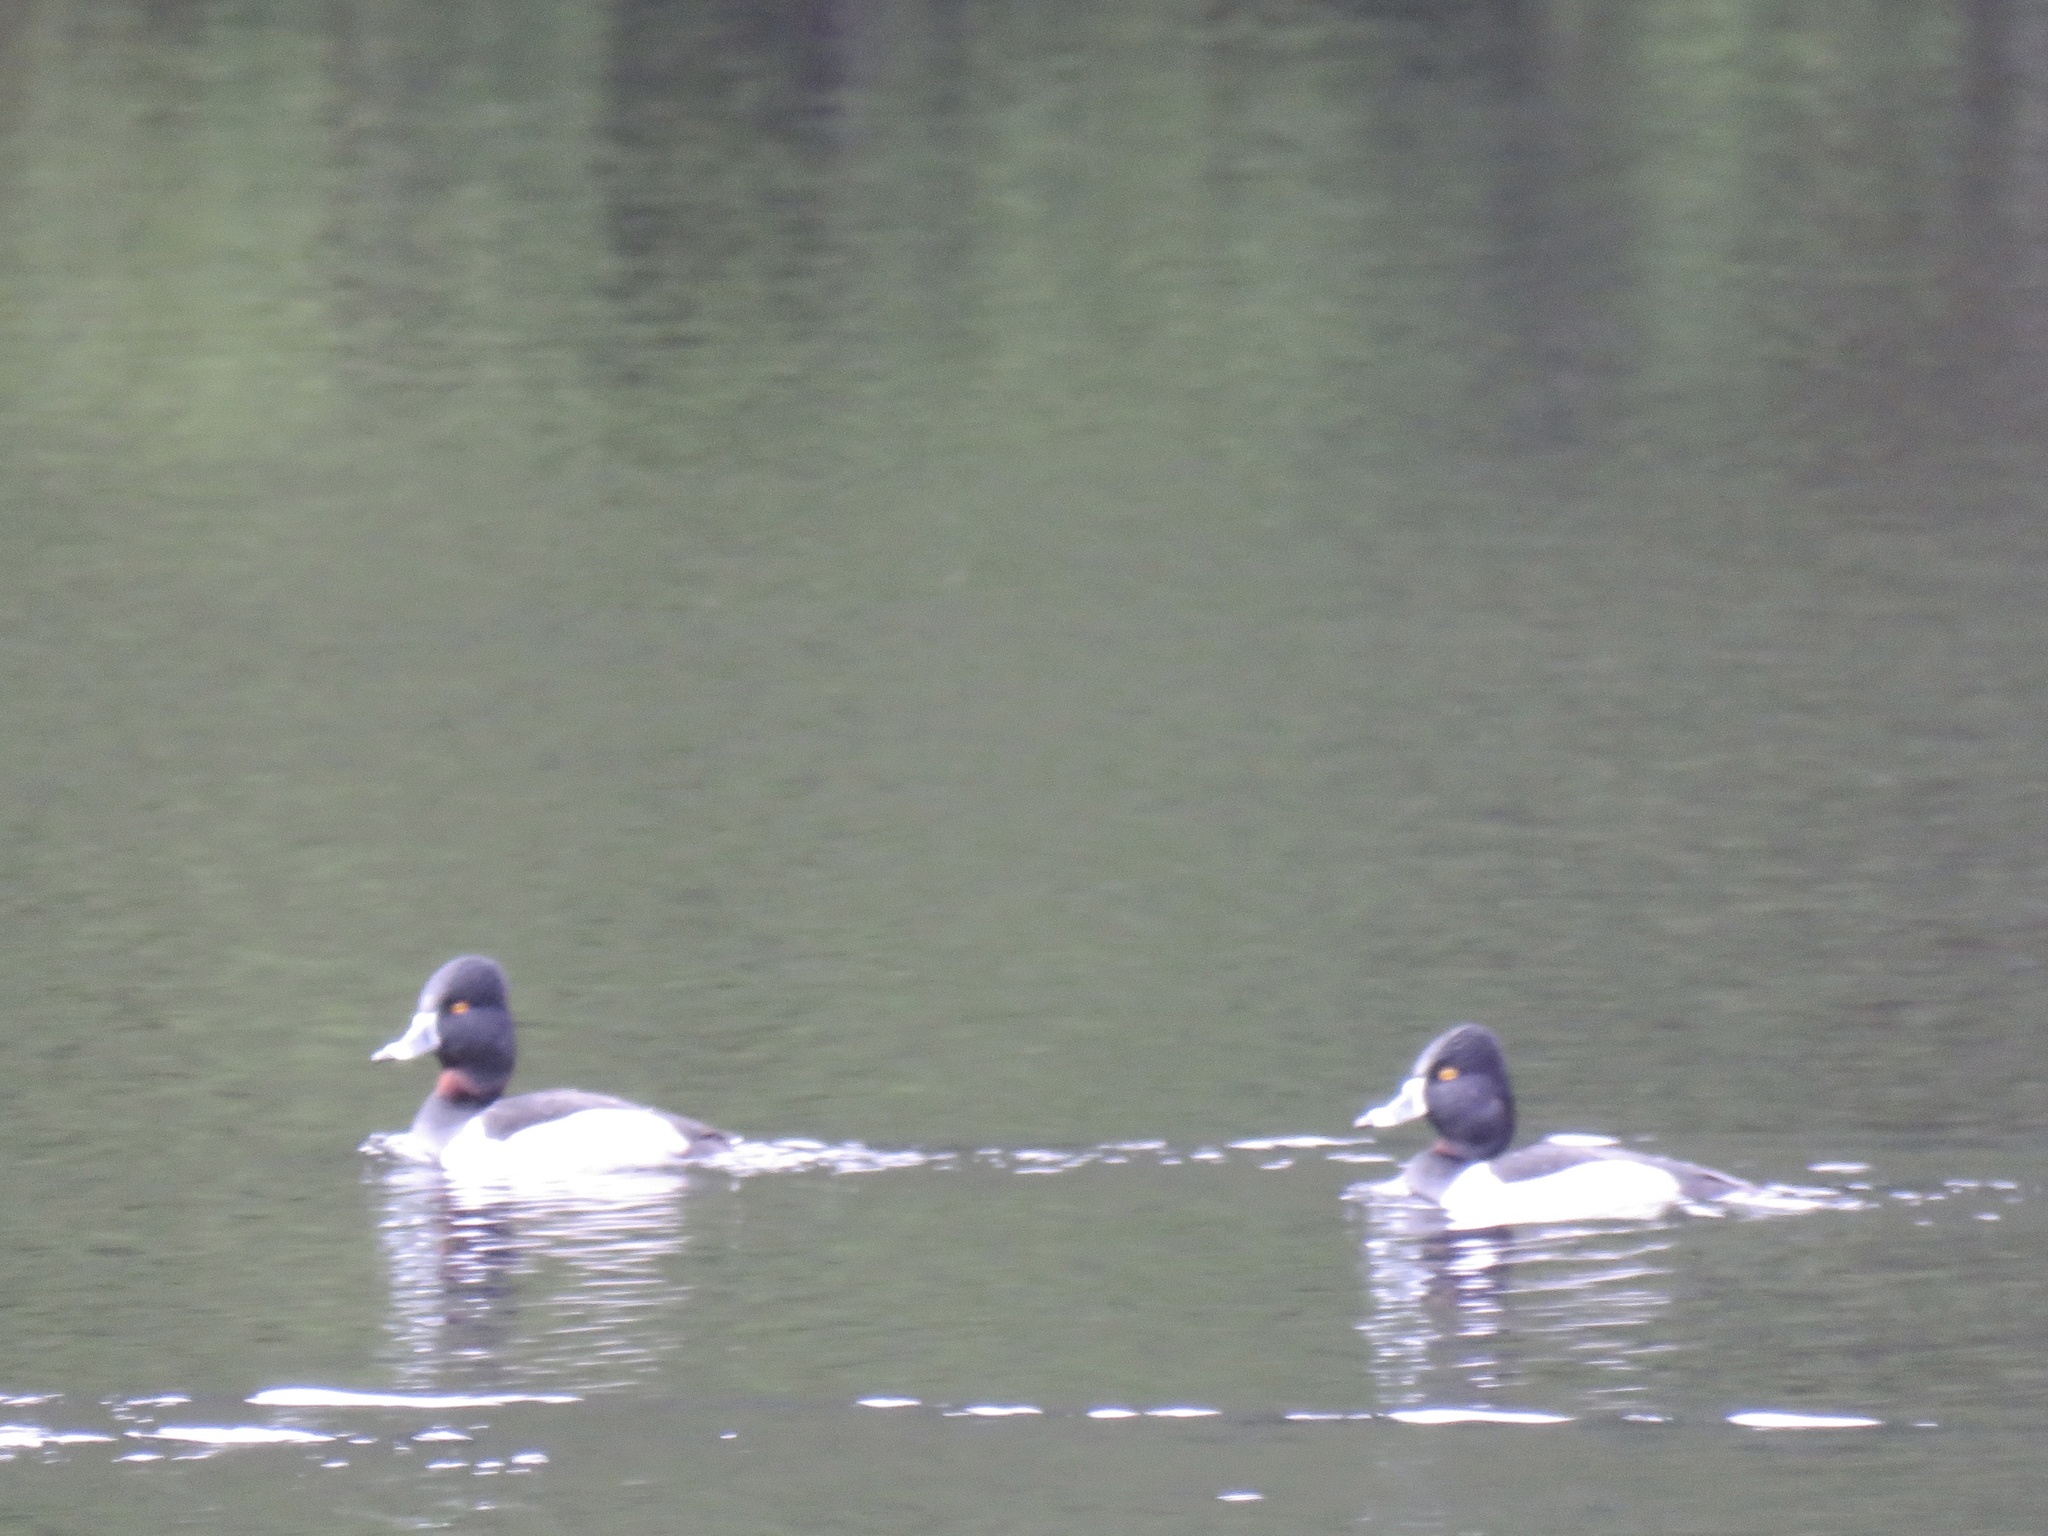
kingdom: Animalia
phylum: Chordata
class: Aves
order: Anseriformes
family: Anatidae
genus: Aythya
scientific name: Aythya collaris
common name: Ring-necked duck
